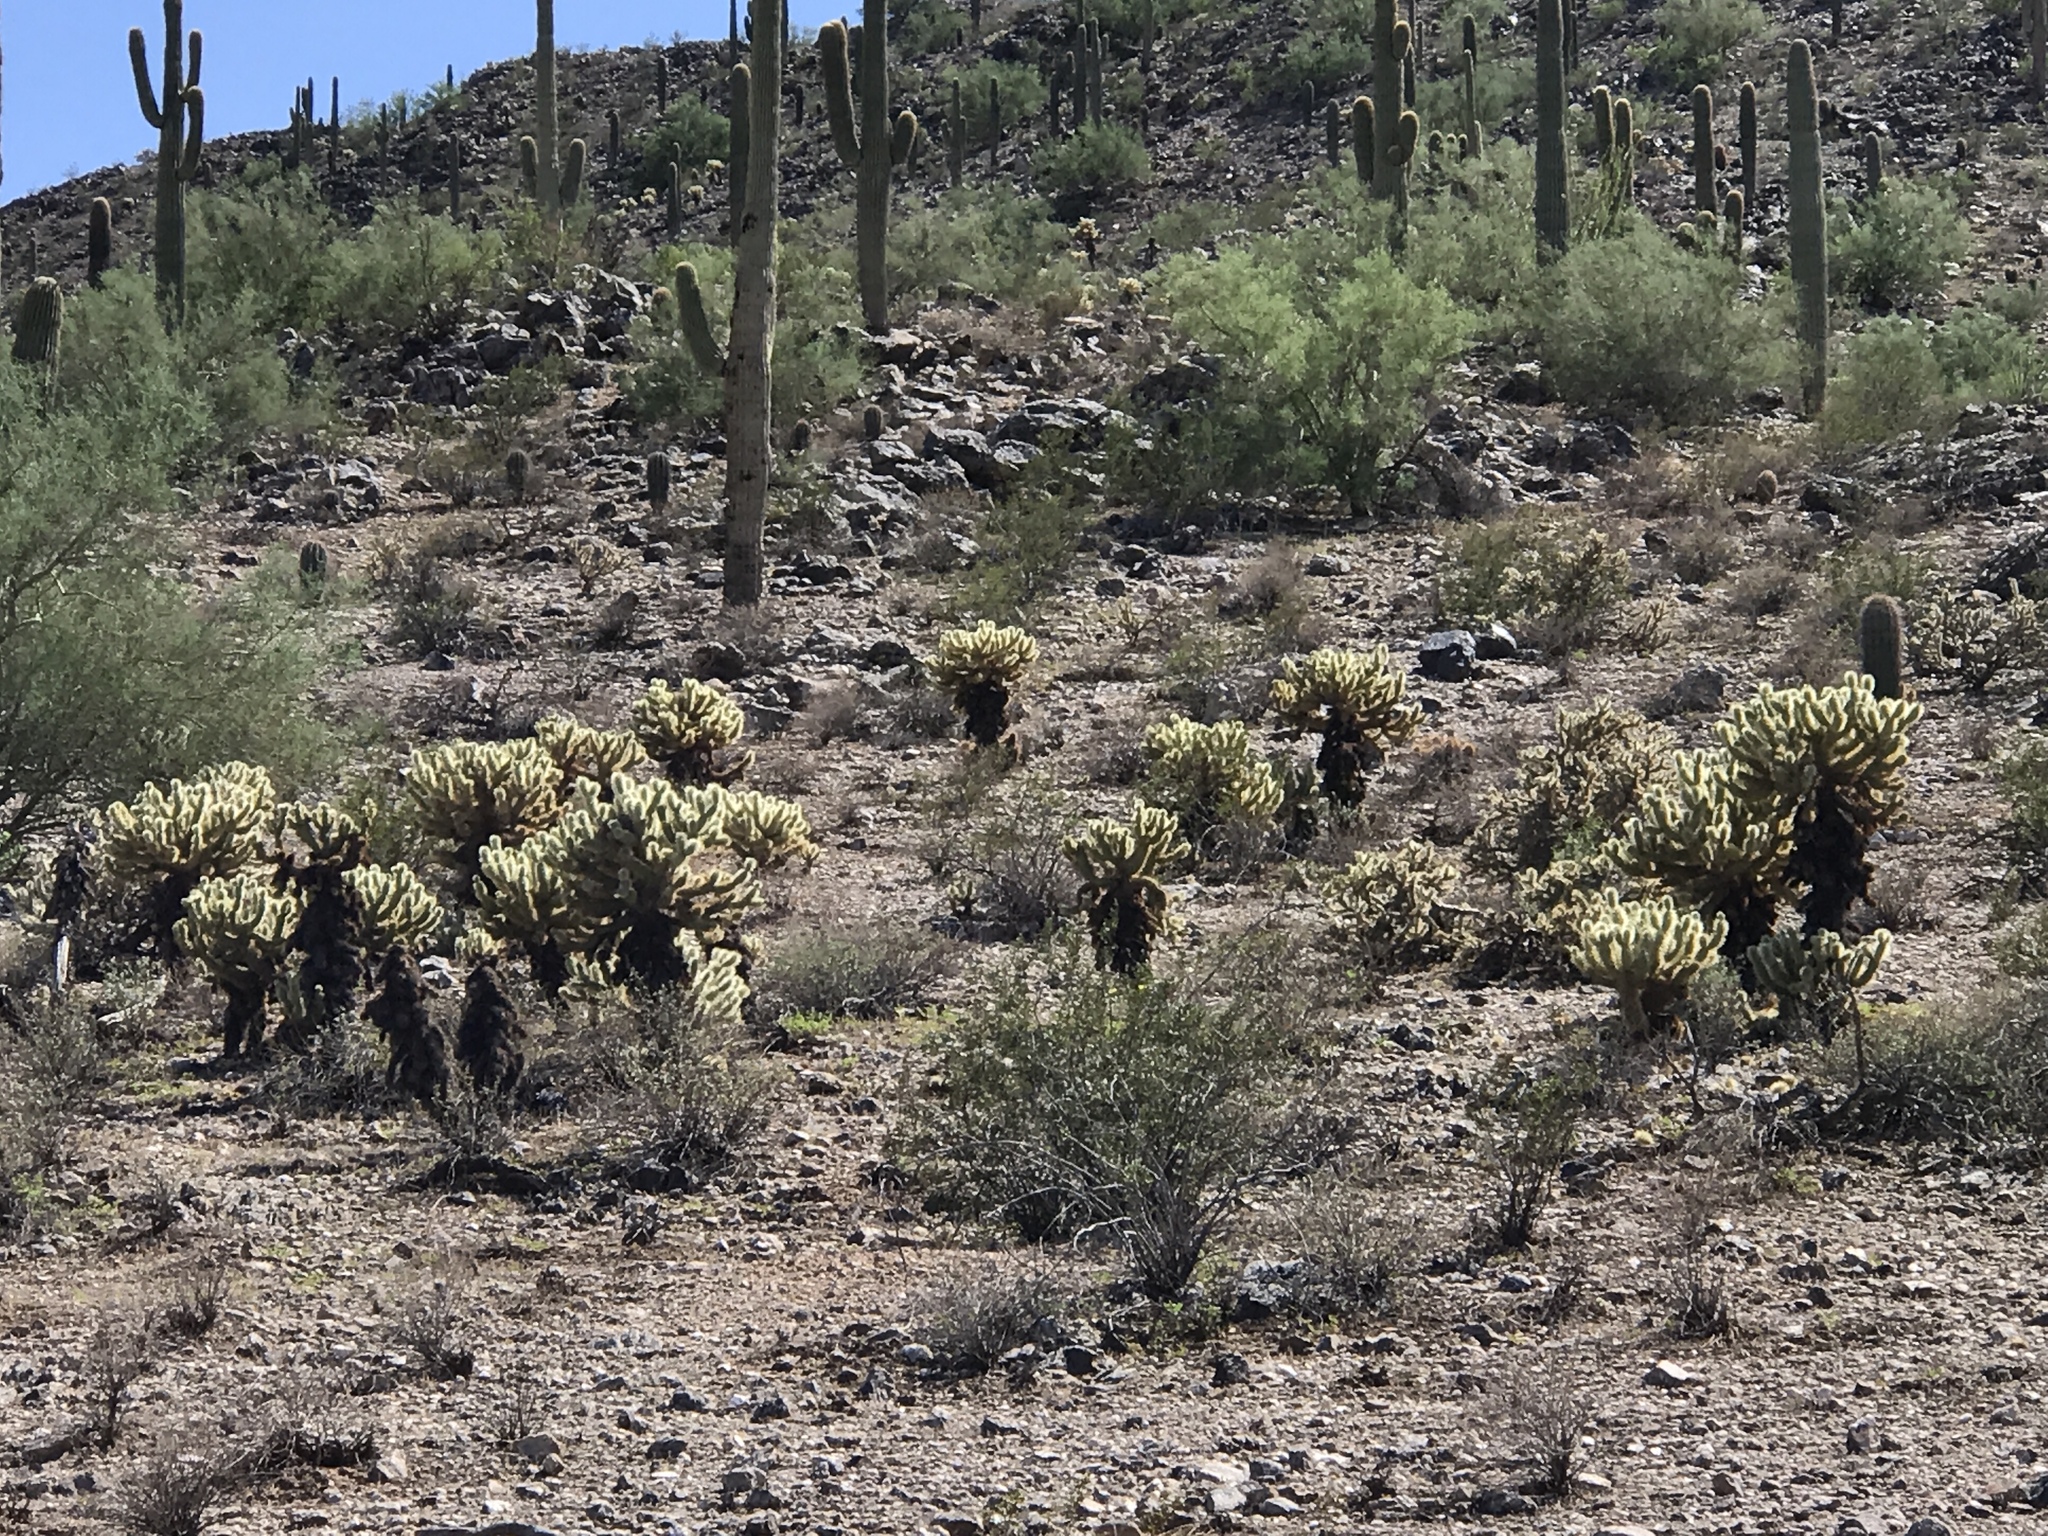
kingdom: Plantae
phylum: Tracheophyta
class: Magnoliopsida
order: Caryophyllales
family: Cactaceae
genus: Cylindropuntia
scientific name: Cylindropuntia fosbergii
